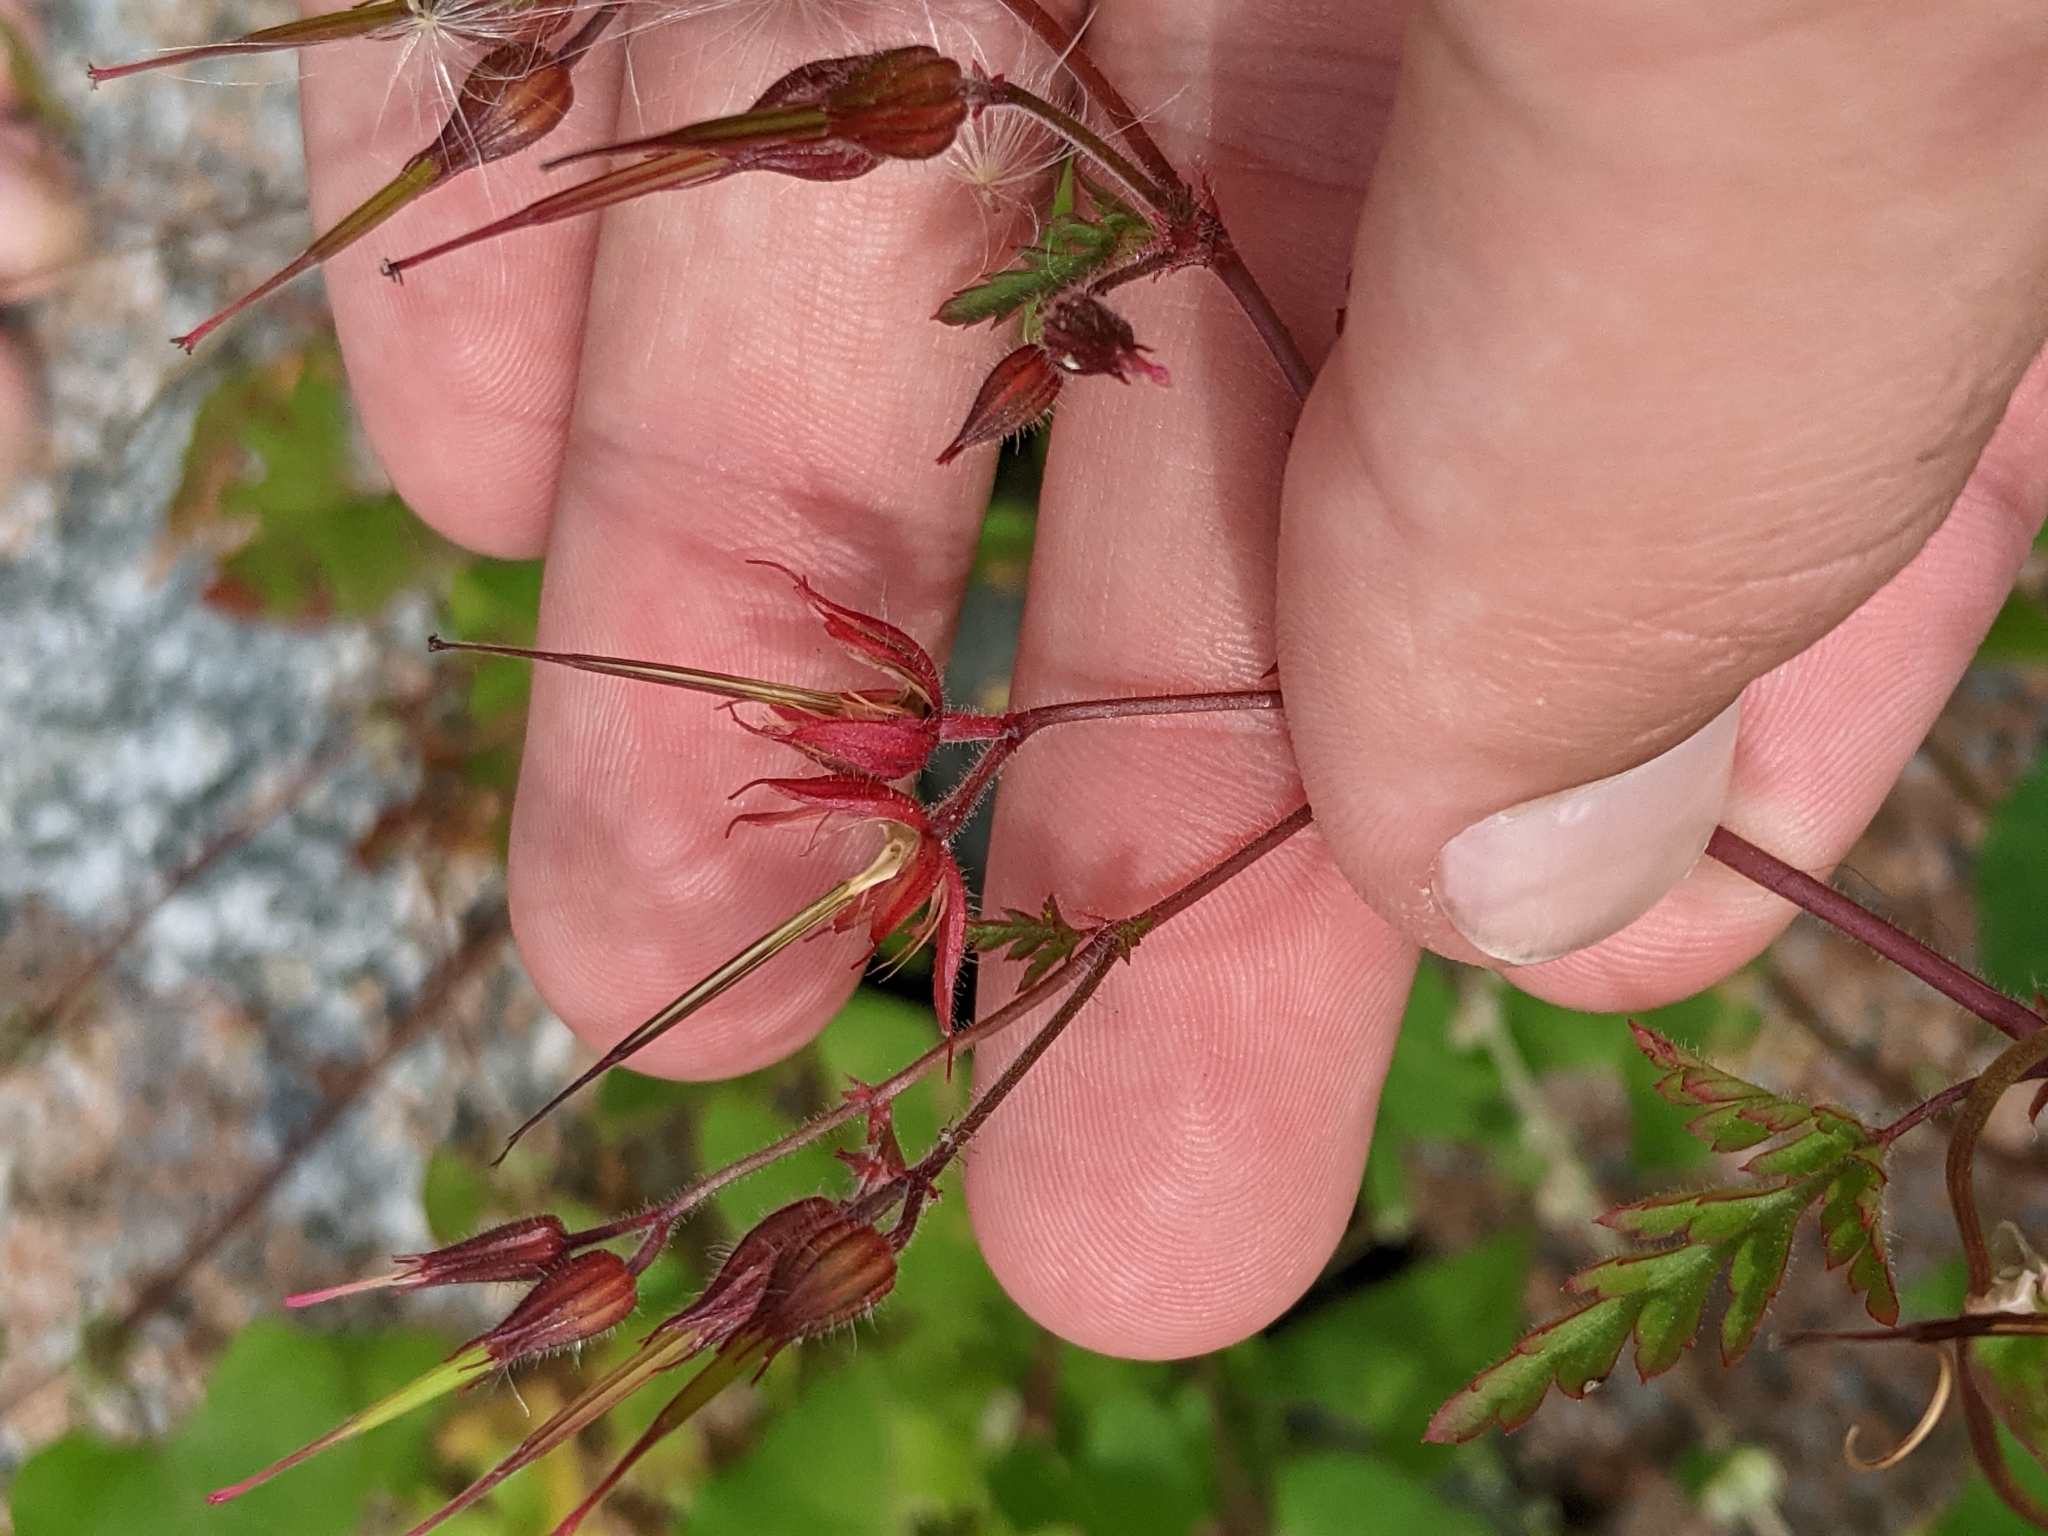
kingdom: Plantae
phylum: Tracheophyta
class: Magnoliopsida
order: Geraniales
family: Geraniaceae
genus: Geranium
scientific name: Geranium robertianum
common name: Herb-robert
